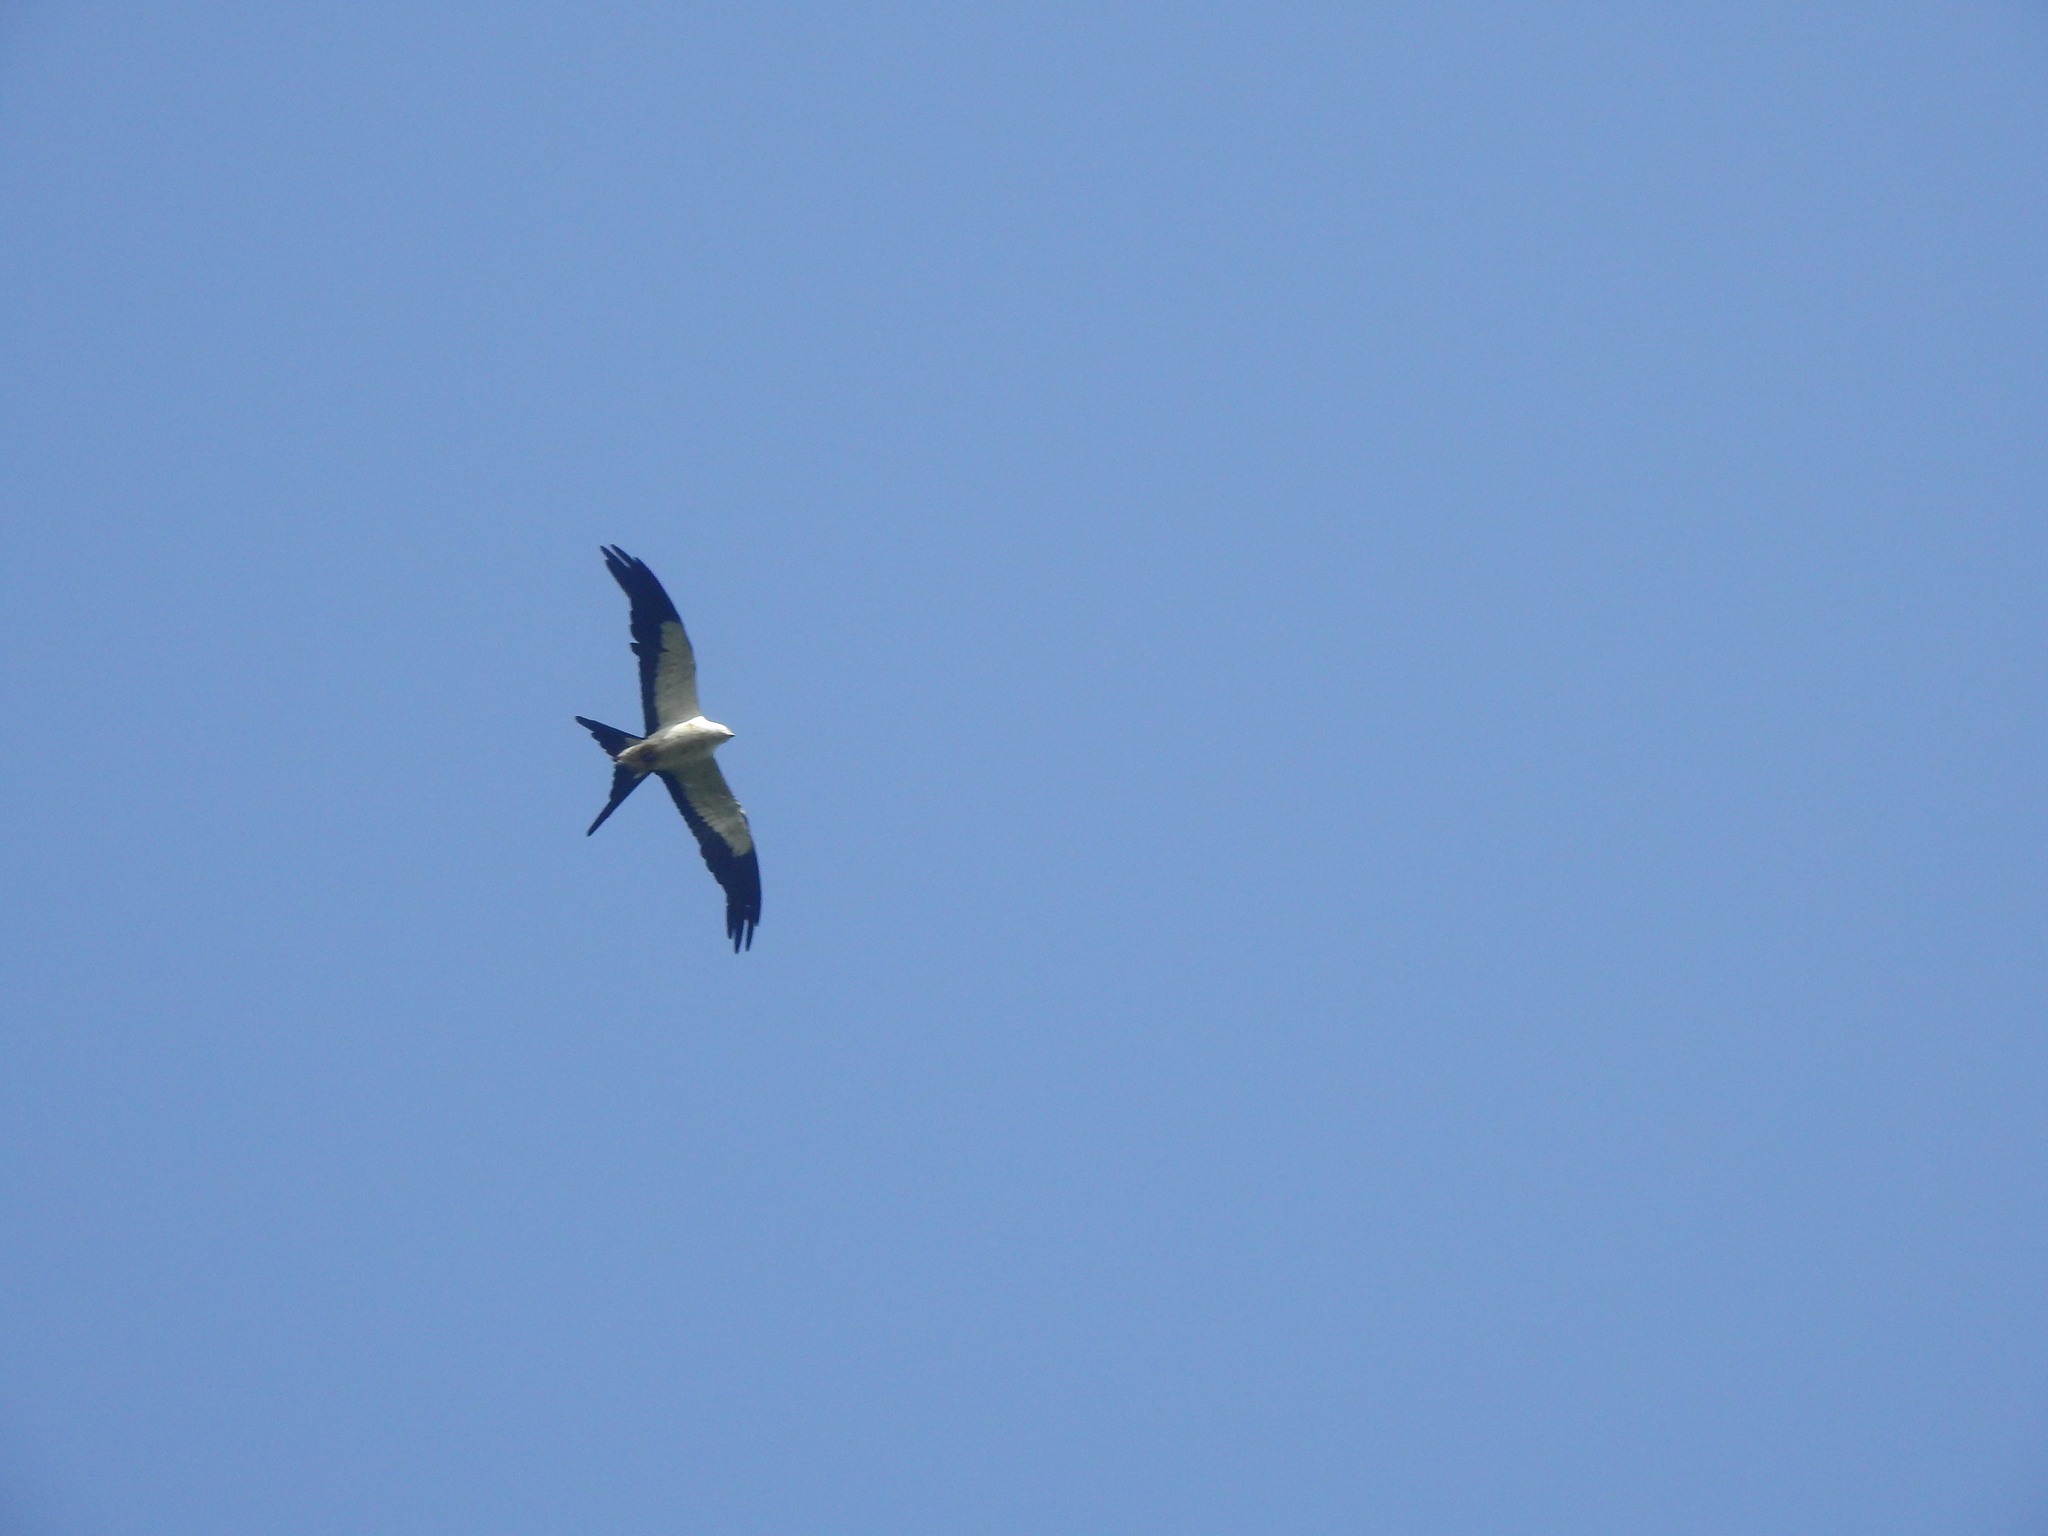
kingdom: Animalia
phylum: Chordata
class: Aves
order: Accipitriformes
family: Accipitridae
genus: Elanoides
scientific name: Elanoides forficatus
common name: Swallow-tailed kite
